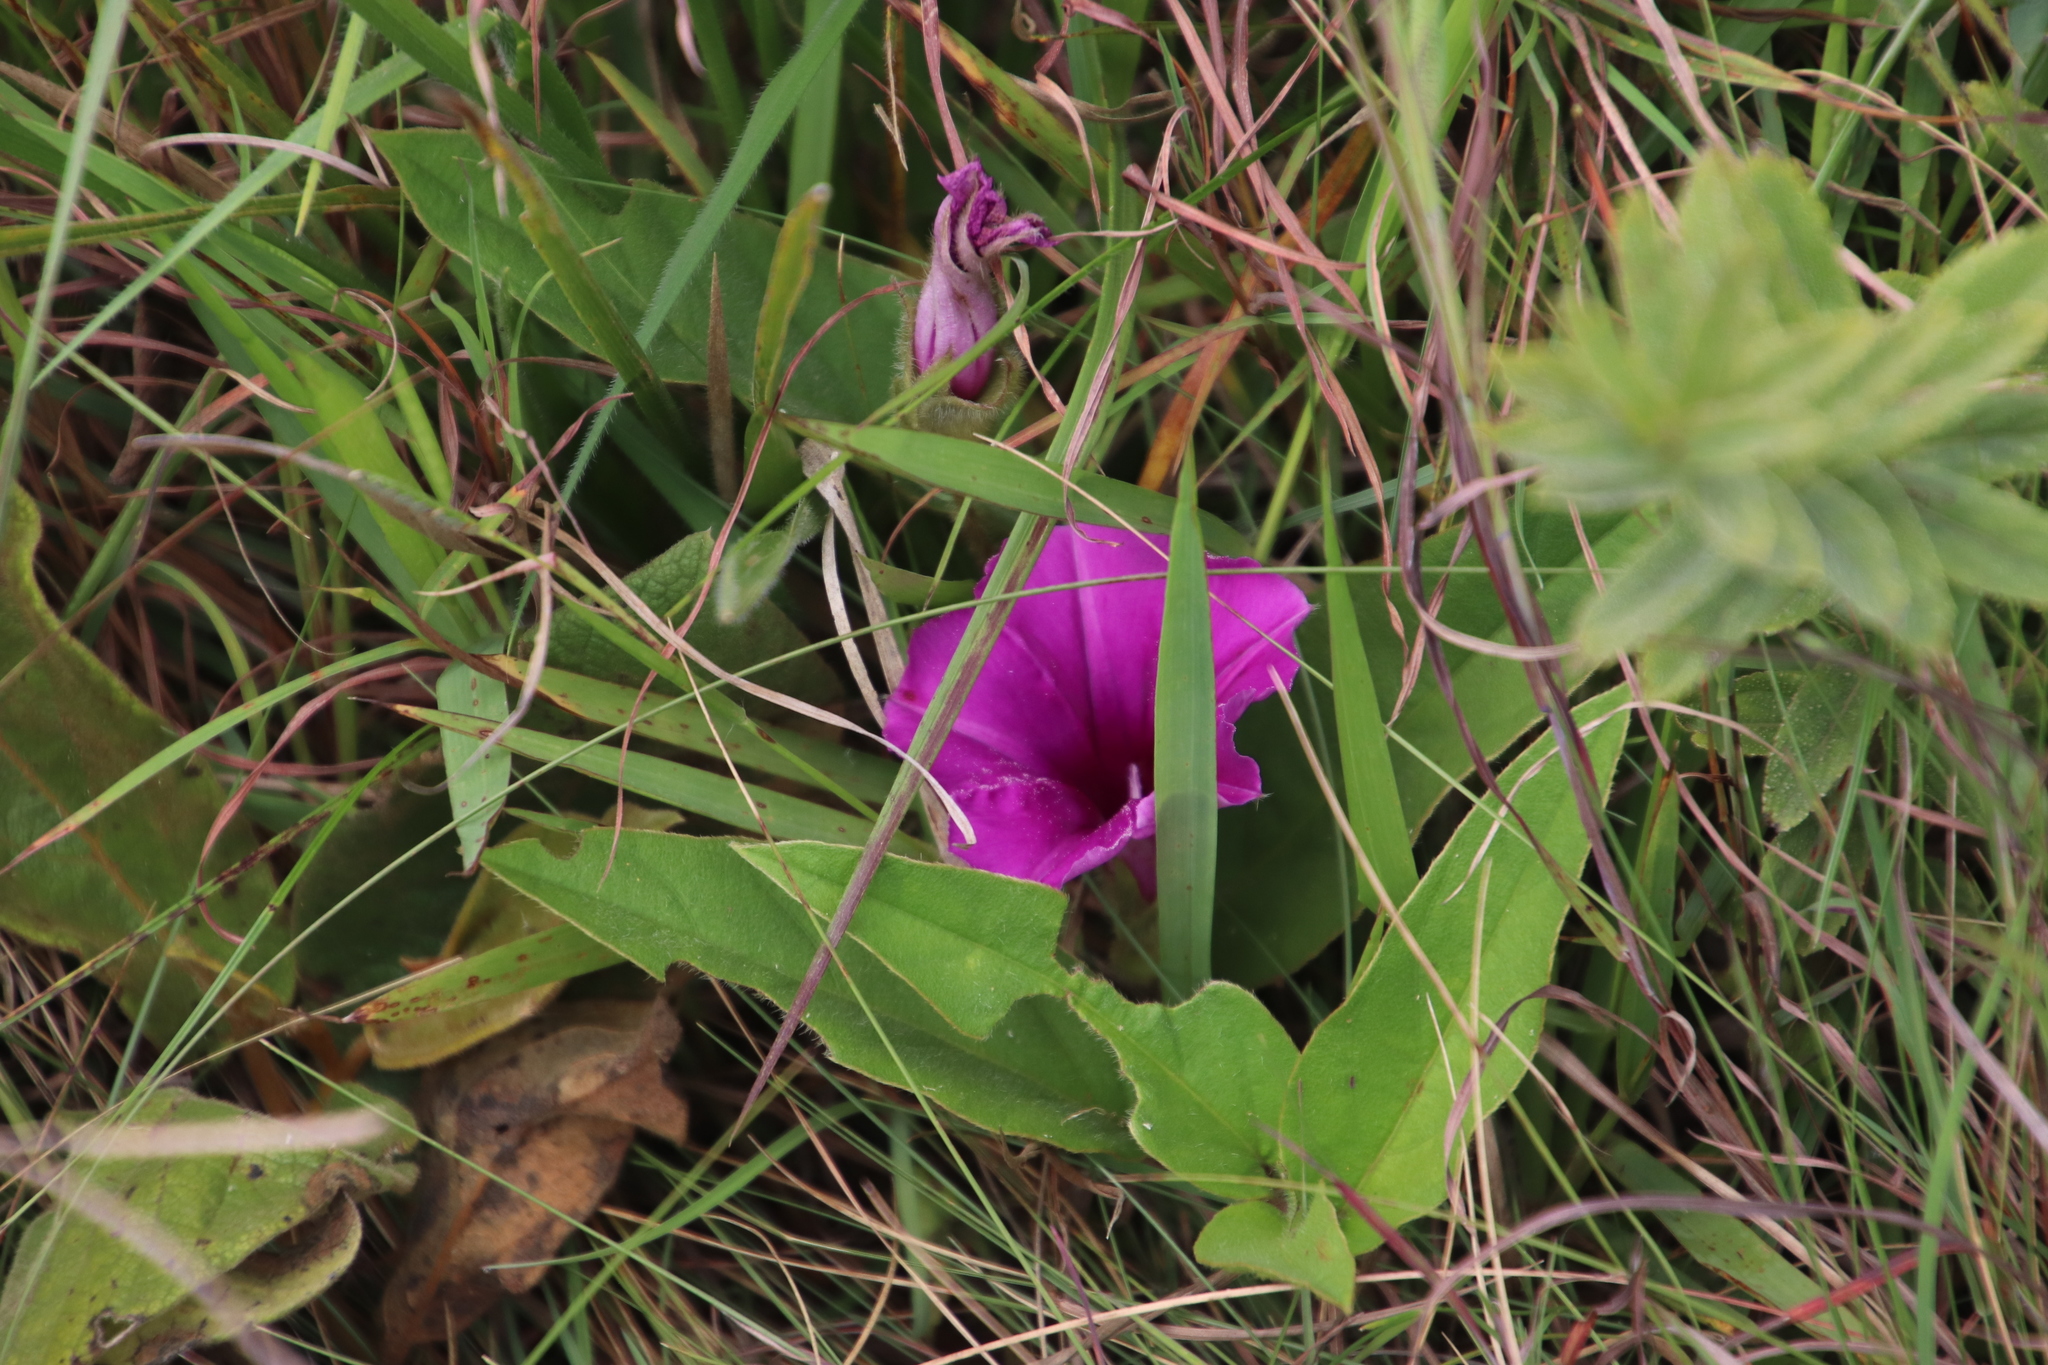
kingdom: Plantae
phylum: Tracheophyta
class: Magnoliopsida
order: Solanales
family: Convolvulaceae
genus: Ipomoea
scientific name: Ipomoea crassipes
